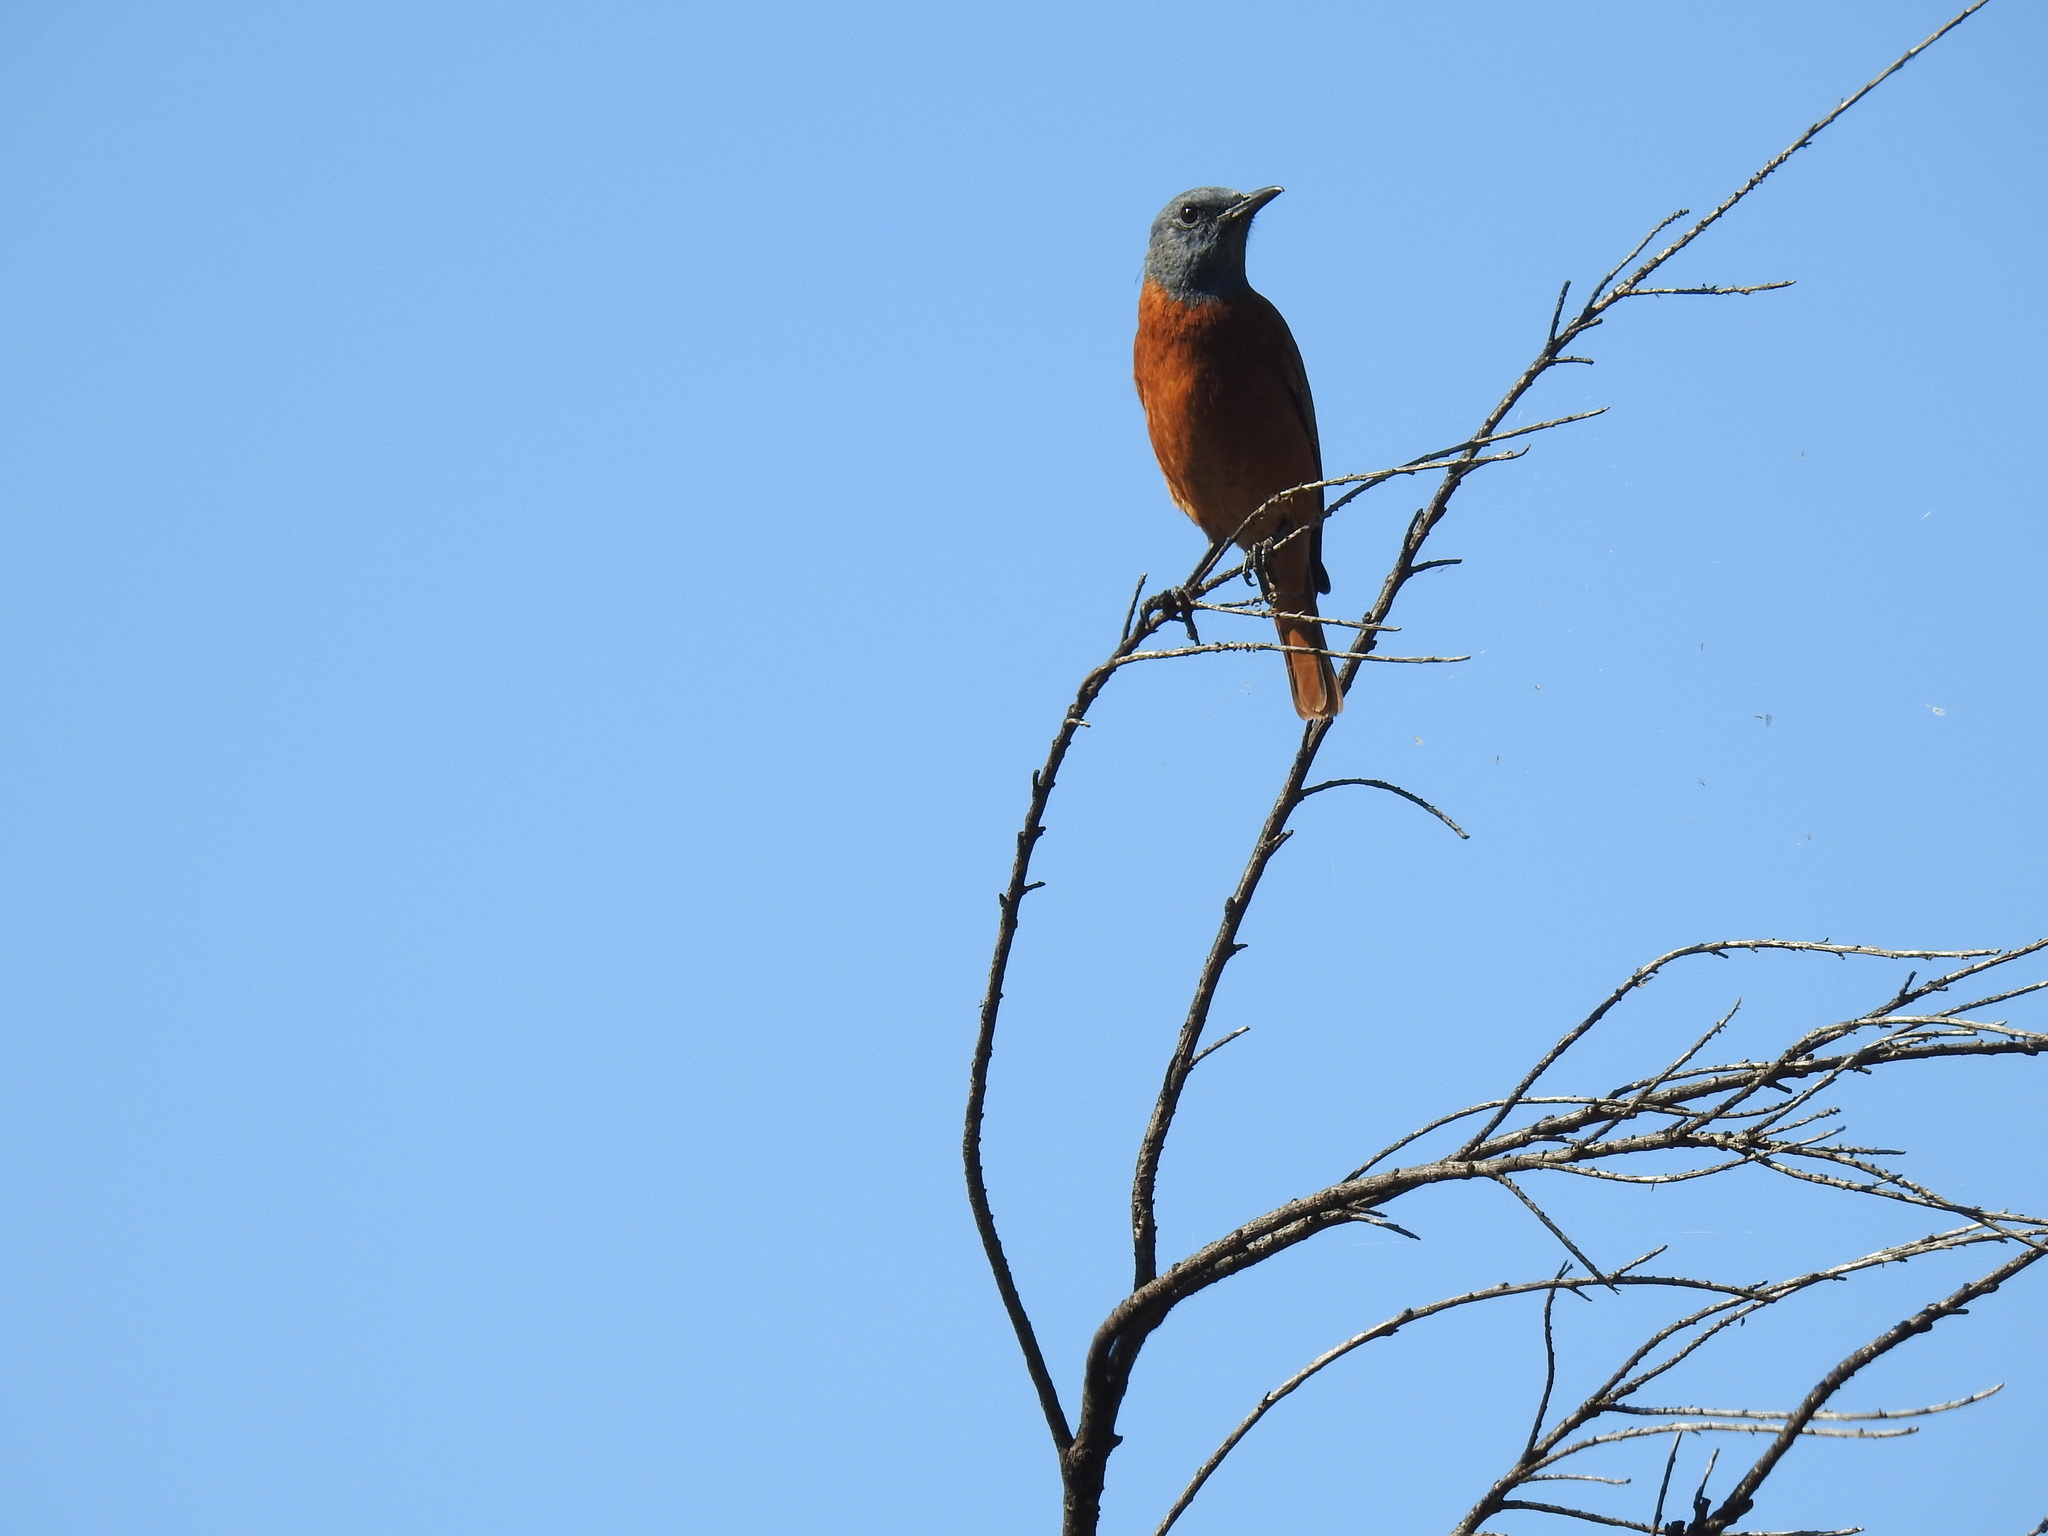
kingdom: Animalia
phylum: Chordata
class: Aves
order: Passeriformes
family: Muscicapidae
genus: Monticola
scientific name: Monticola rupestris
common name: Cape rock thrush
